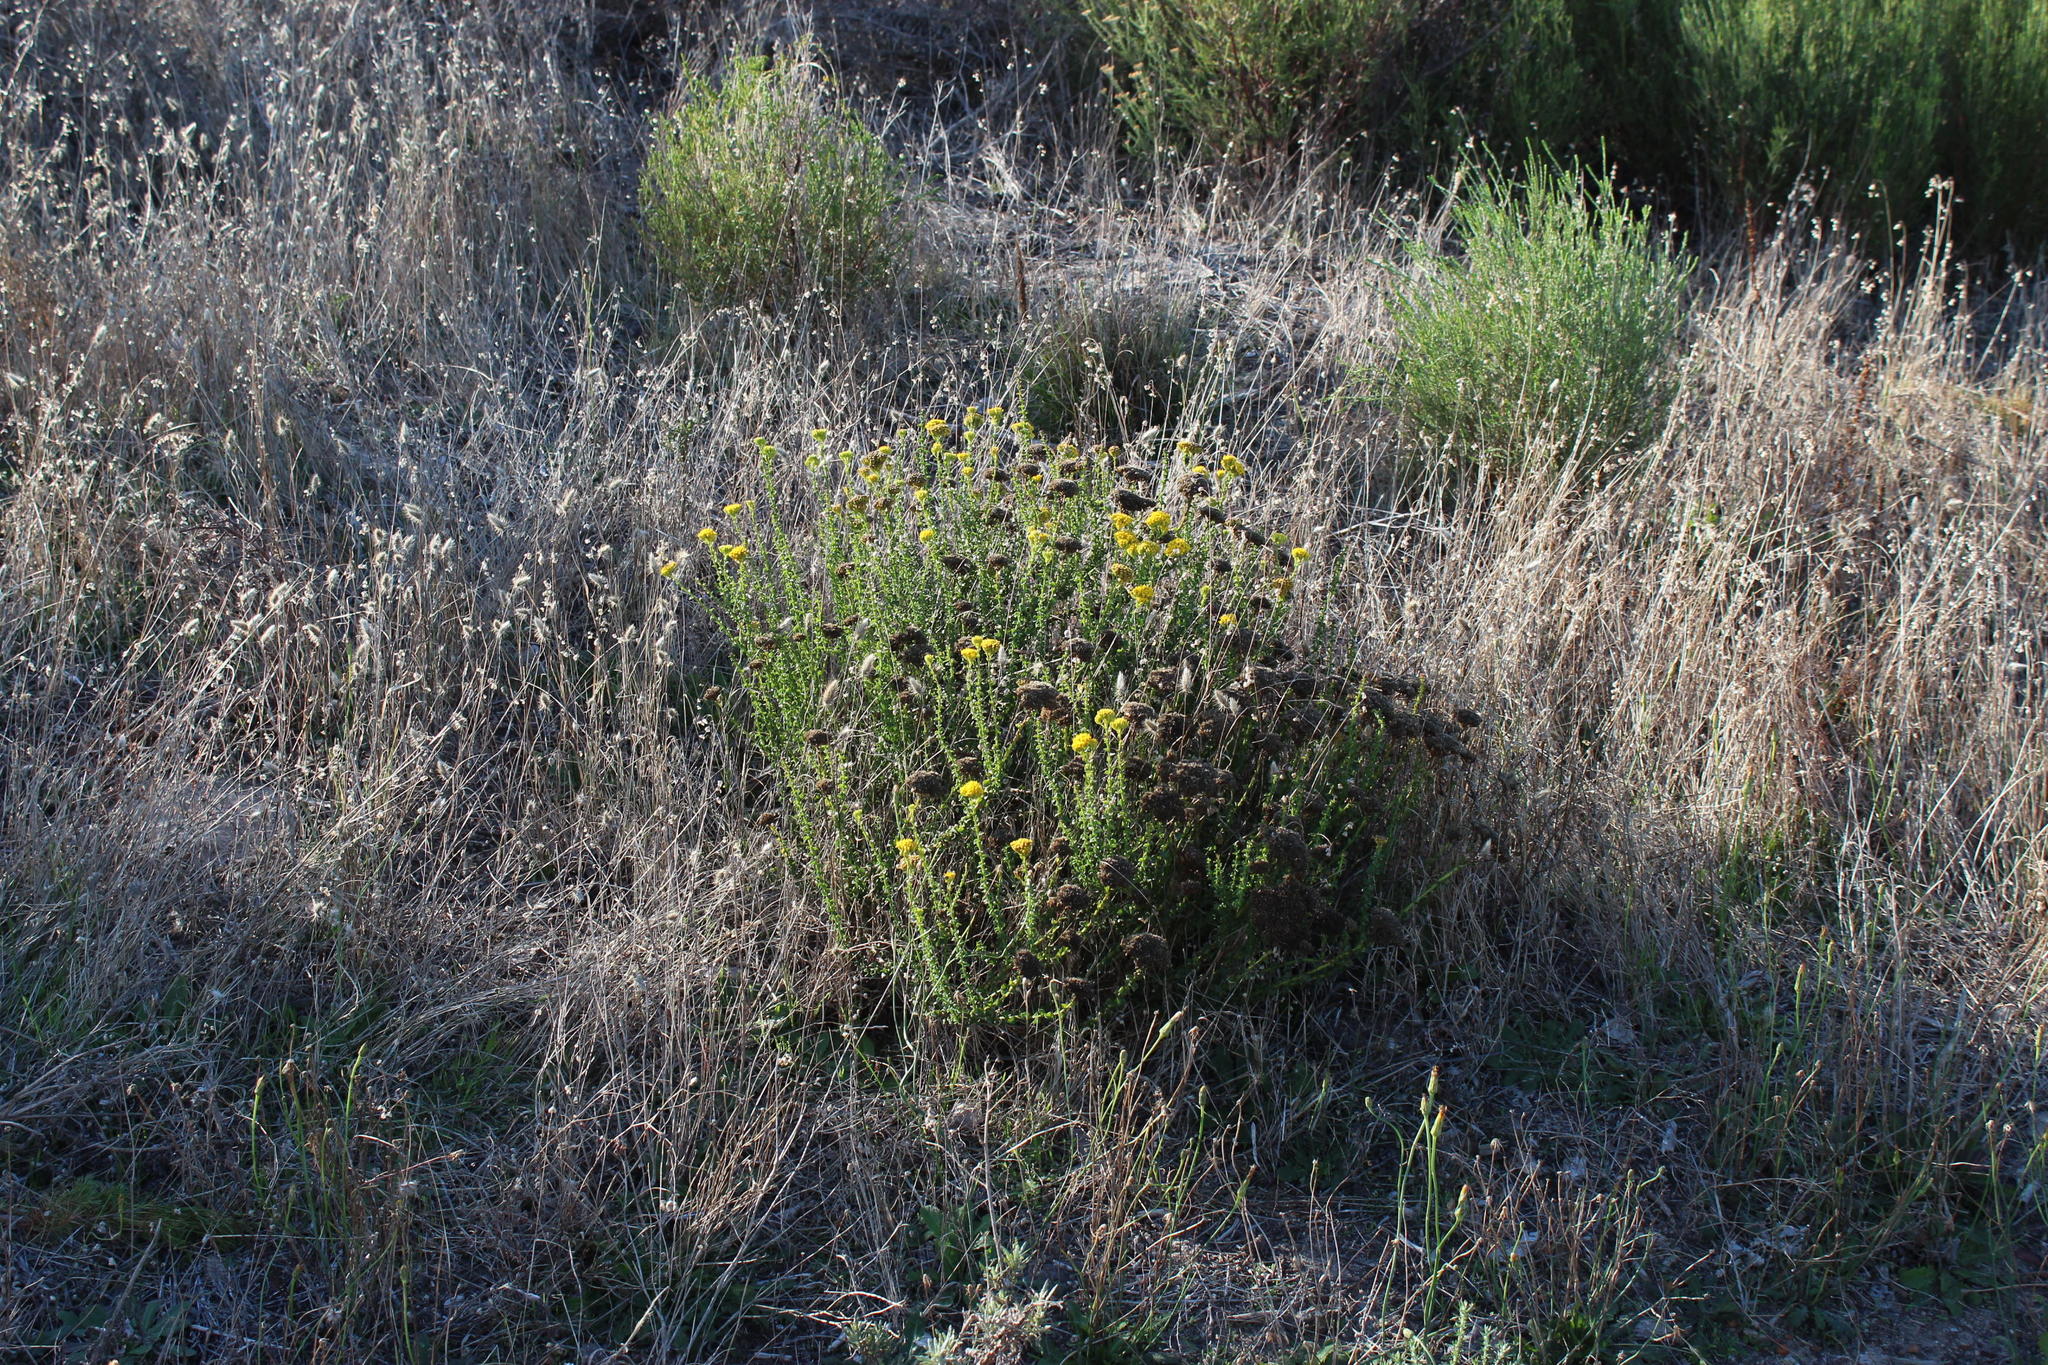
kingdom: Plantae
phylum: Tracheophyta
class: Magnoliopsida
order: Asterales
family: Asteraceae
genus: Athanasia
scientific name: Athanasia dentata
